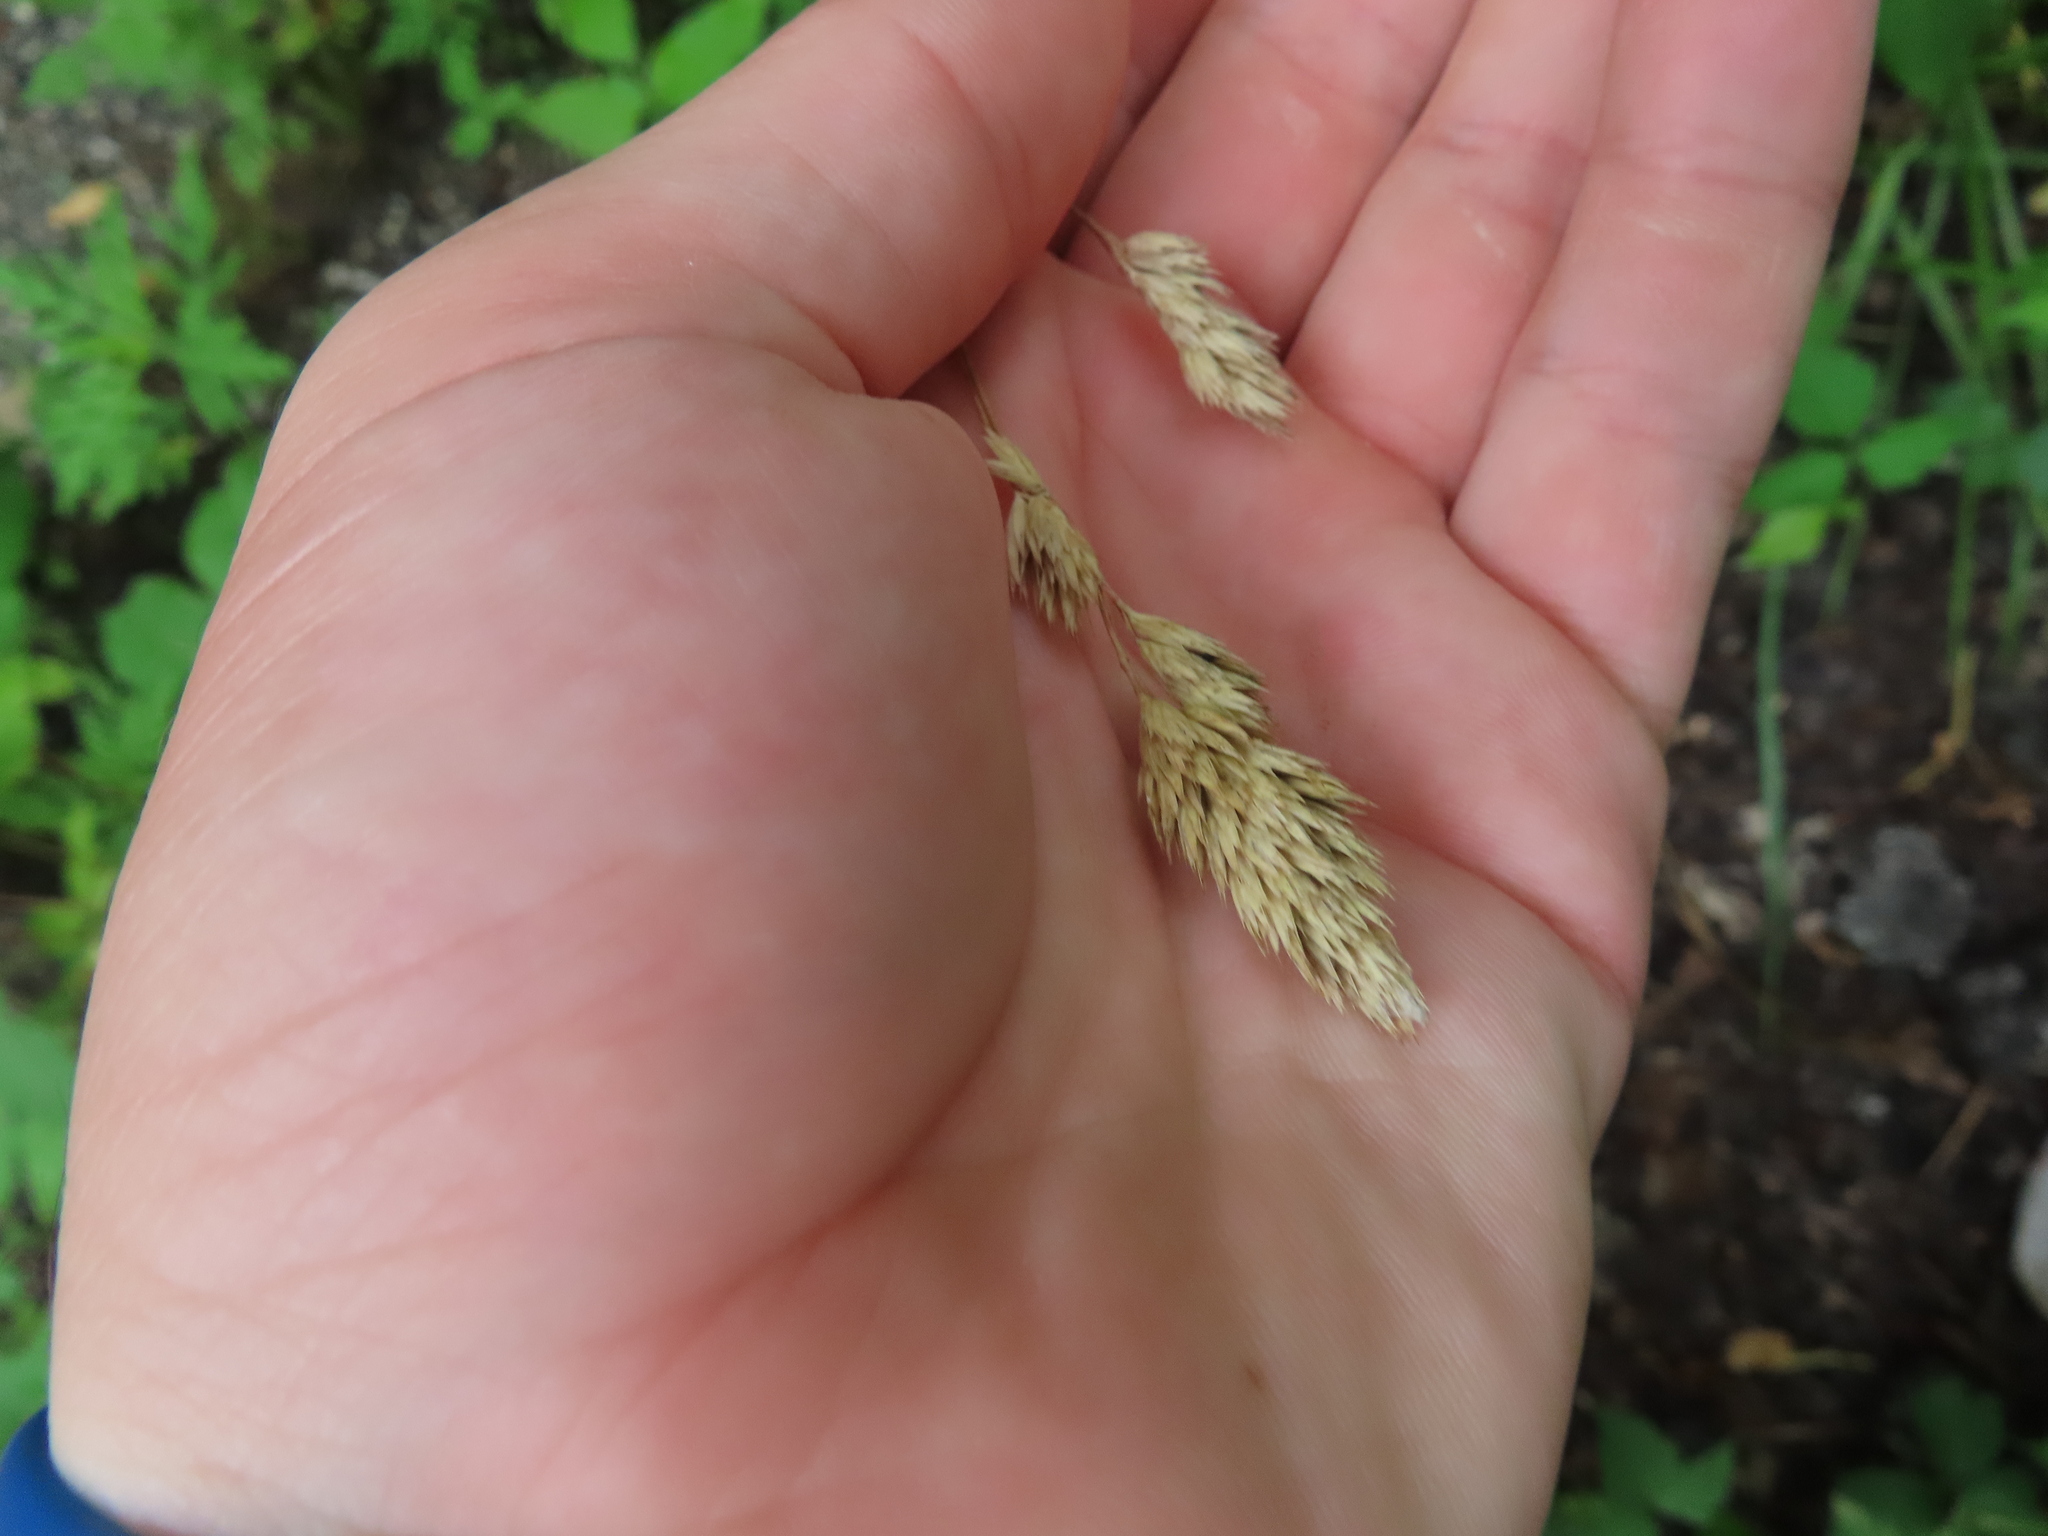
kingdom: Plantae
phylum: Tracheophyta
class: Liliopsida
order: Poales
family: Poaceae
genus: Dactylis
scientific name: Dactylis glomerata
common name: Orchardgrass
